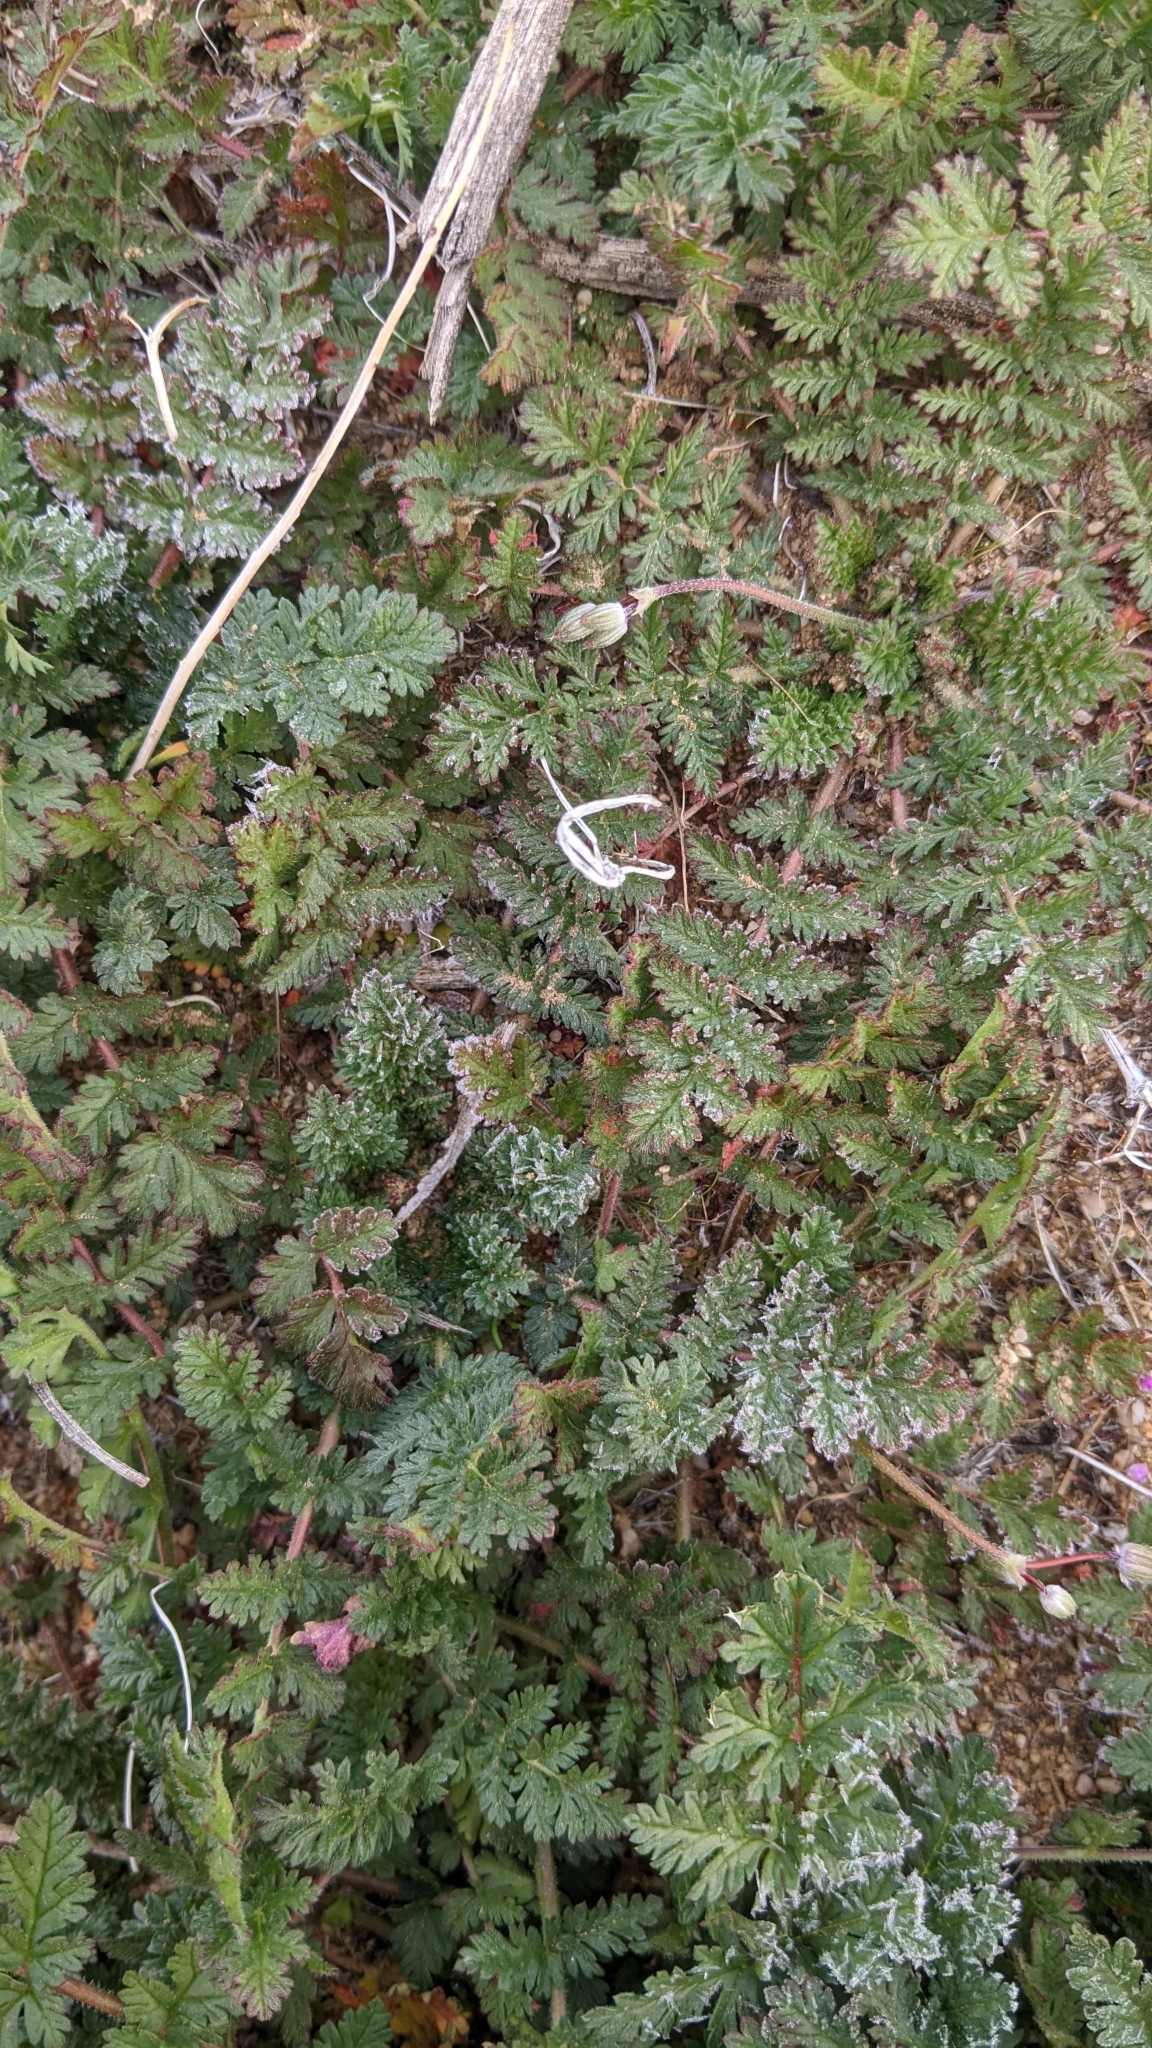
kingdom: Plantae
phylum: Tracheophyta
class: Magnoliopsida
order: Geraniales
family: Geraniaceae
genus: Erodium
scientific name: Erodium cicutarium
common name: Common stork's-bill
